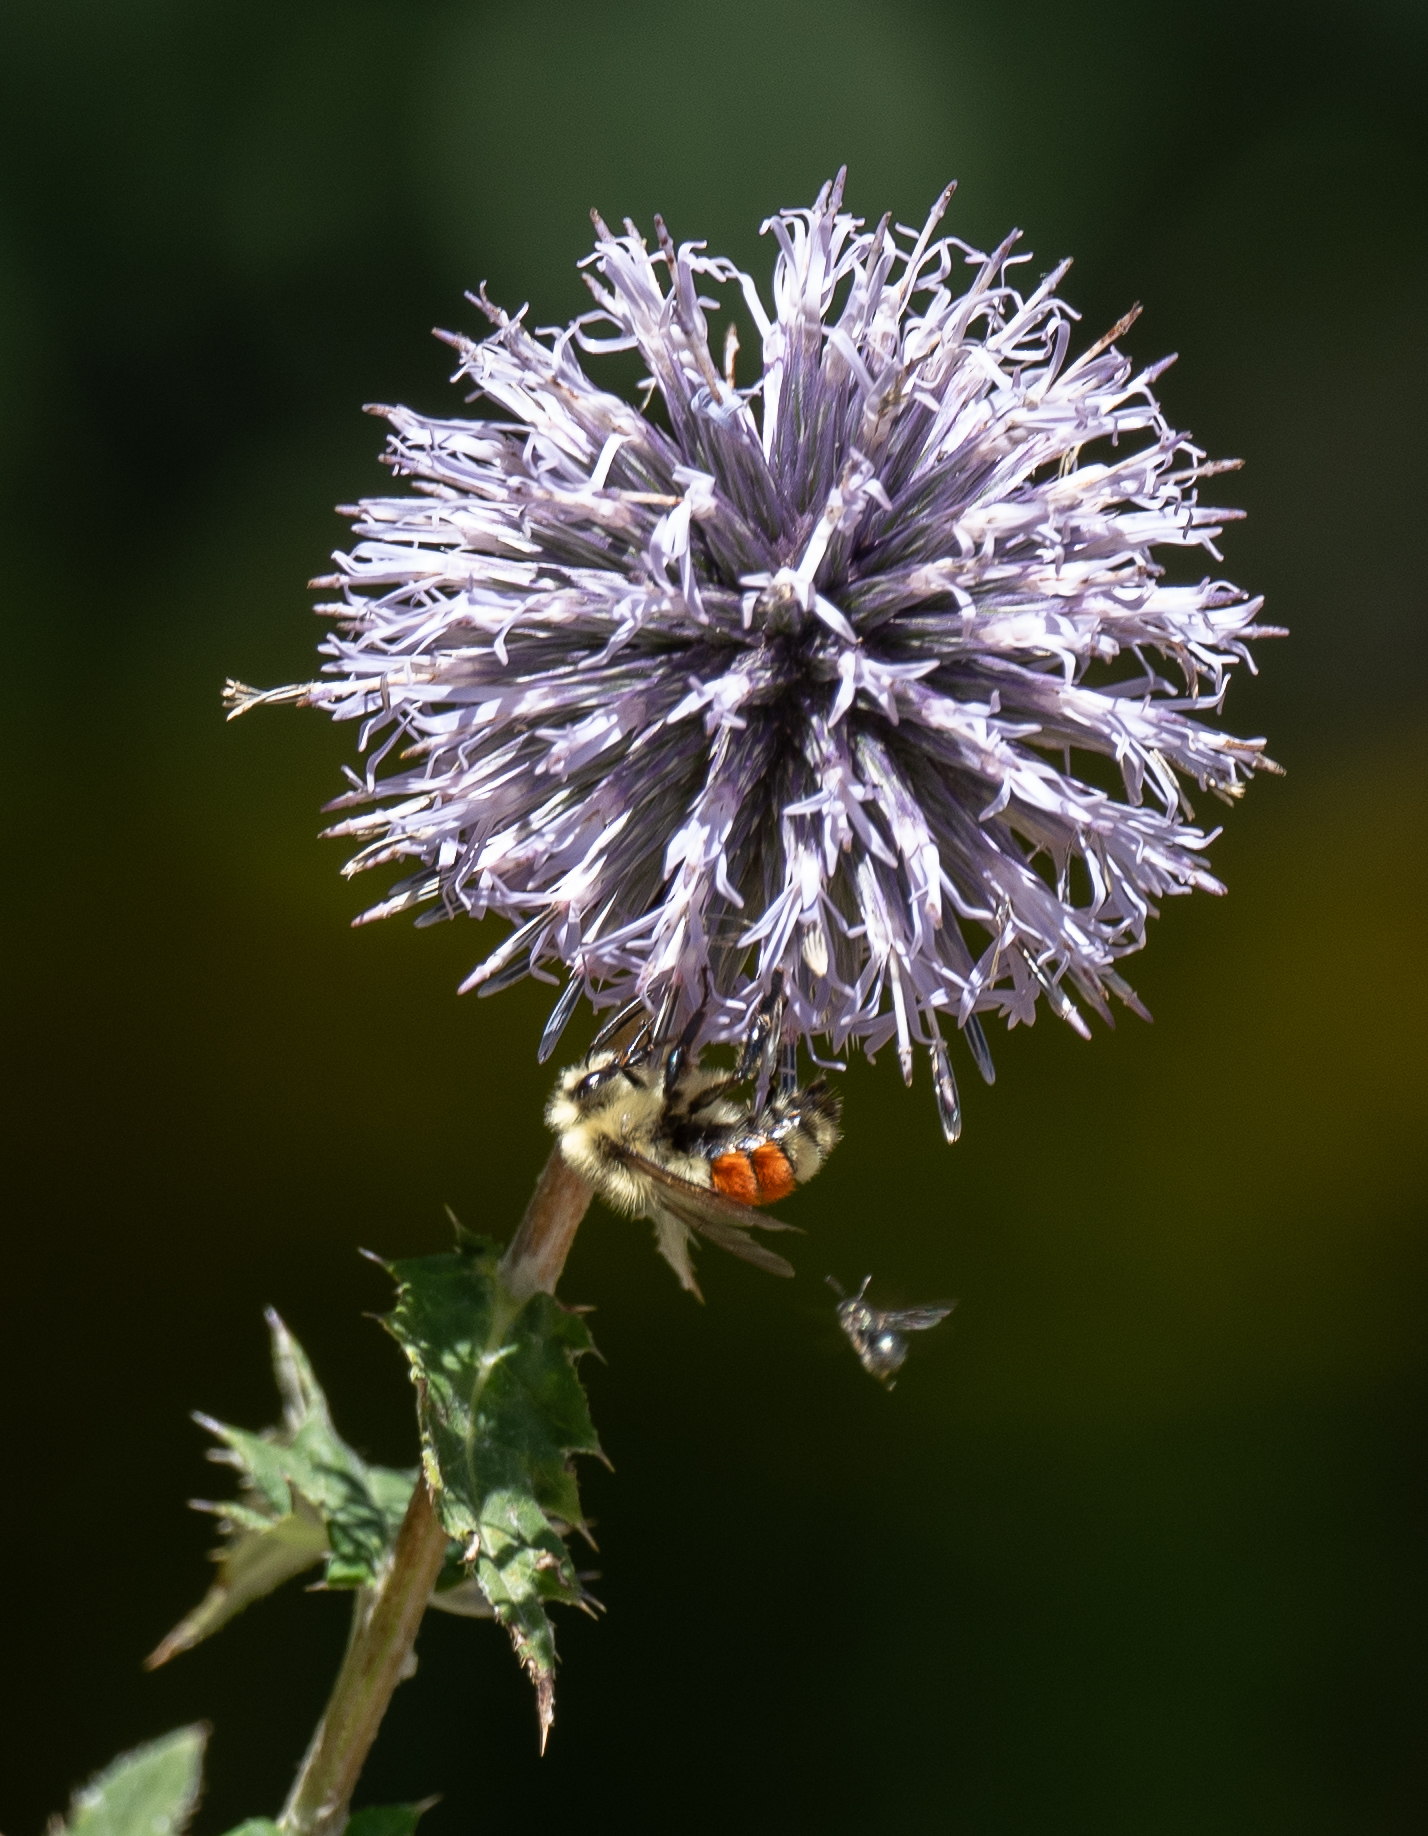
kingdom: Animalia
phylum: Arthropoda
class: Insecta
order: Hymenoptera
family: Apidae
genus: Bombus
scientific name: Bombus huntii
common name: Hunt bumble bee
